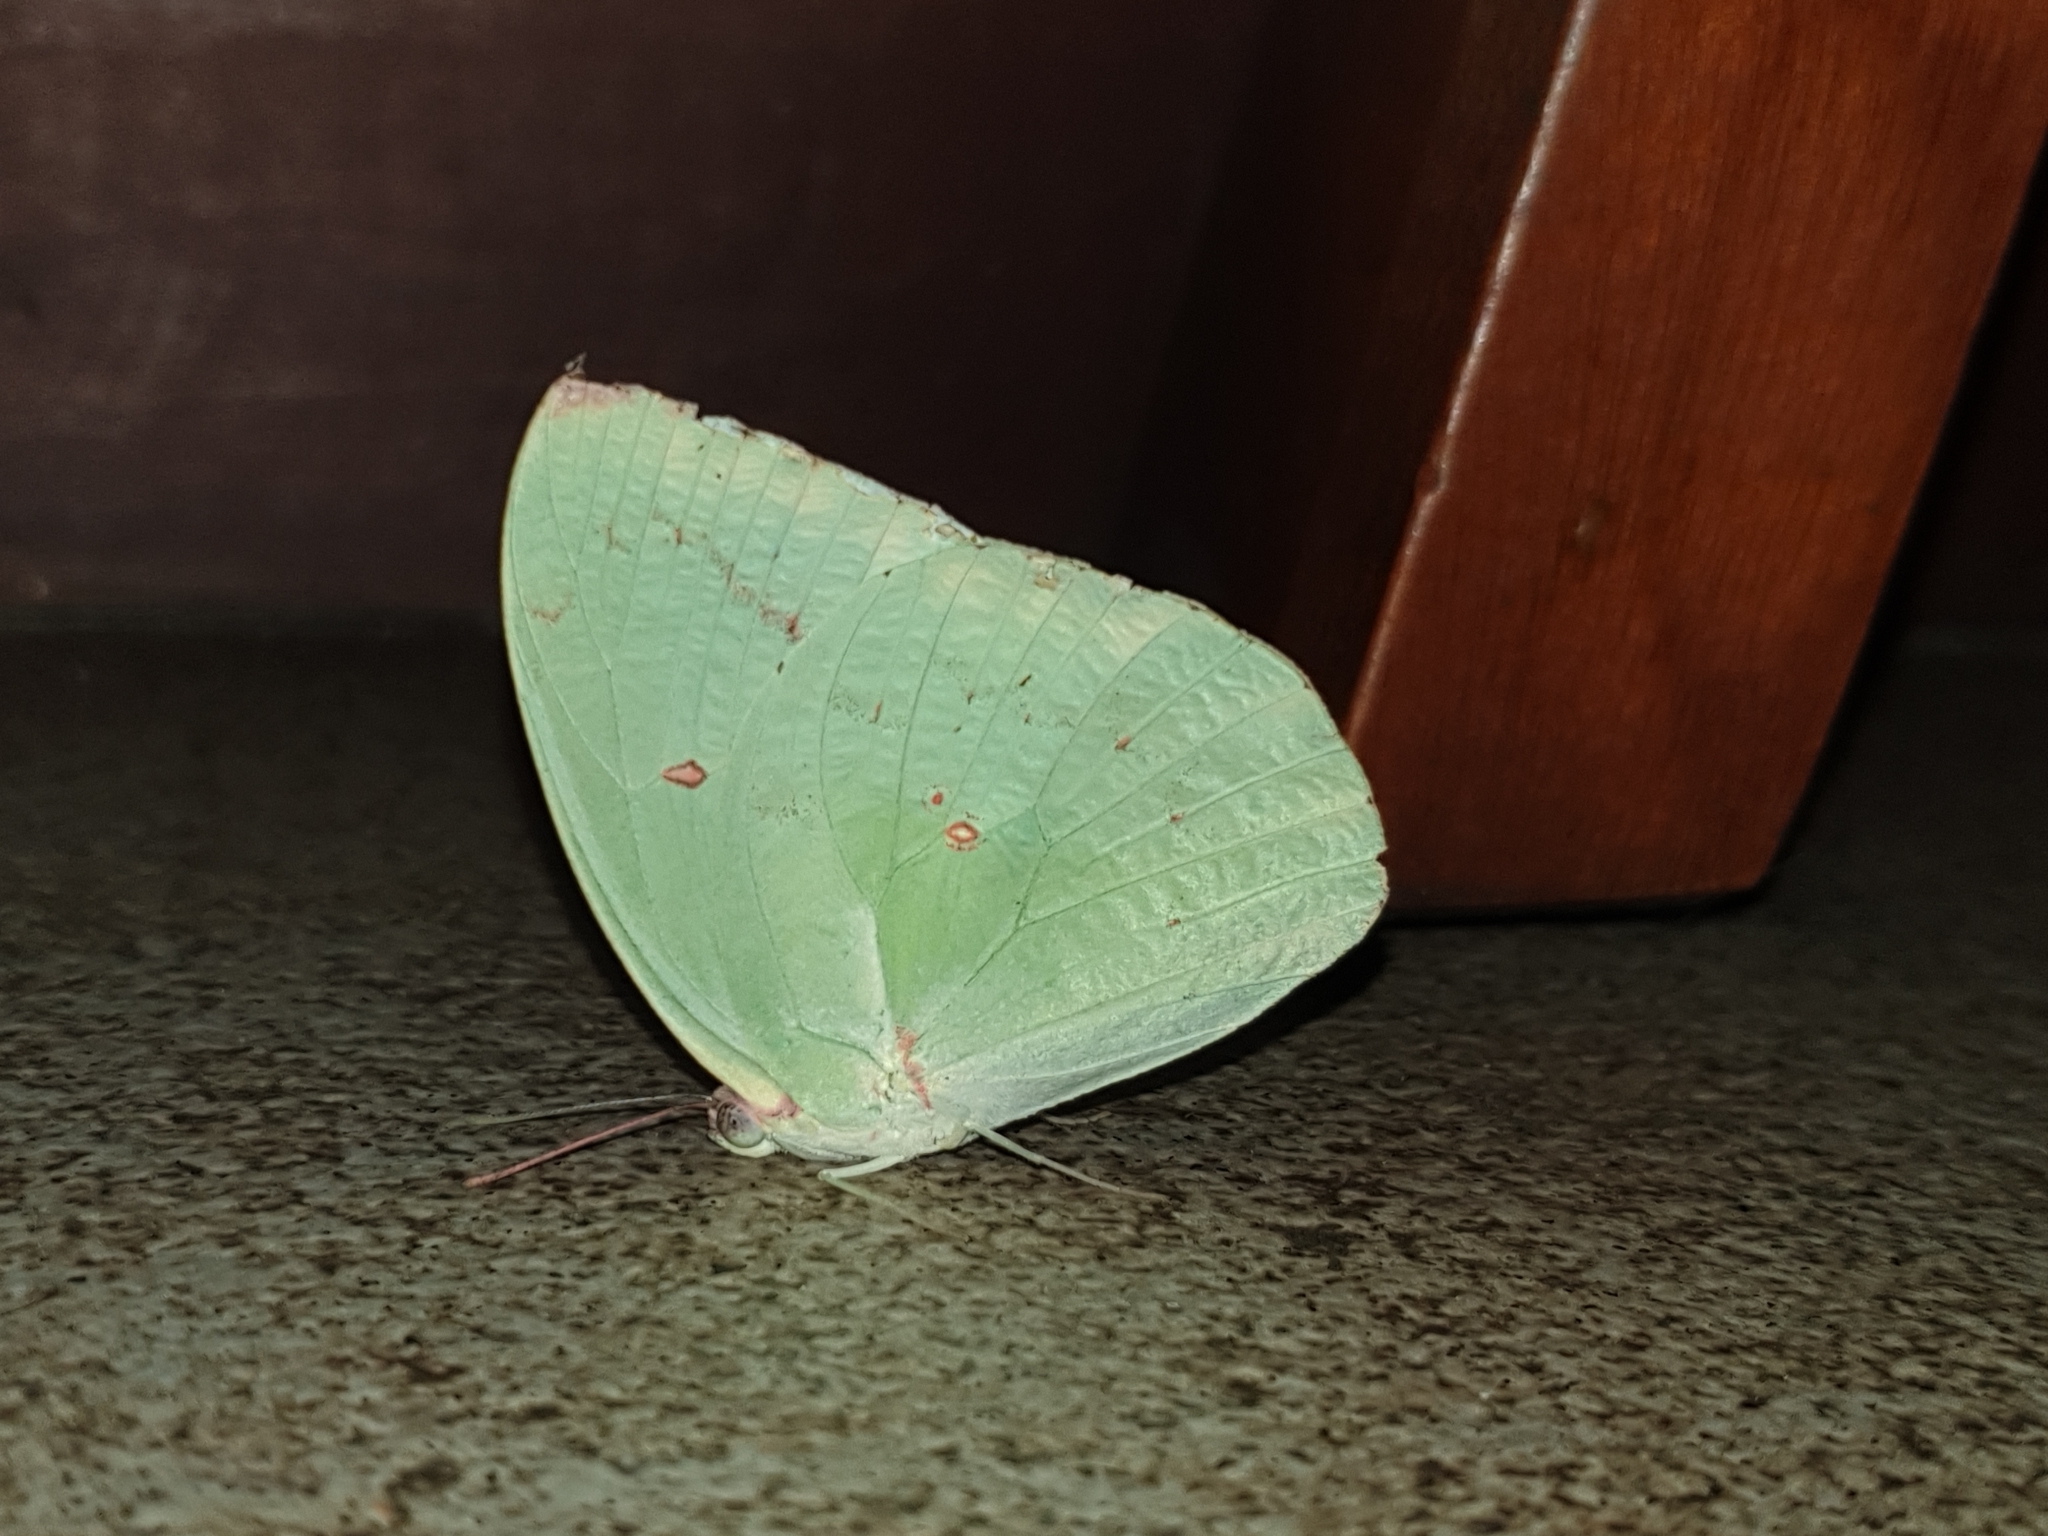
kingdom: Animalia
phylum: Arthropoda
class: Insecta
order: Lepidoptera
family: Pieridae
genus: Catopsilia
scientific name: Catopsilia pomona
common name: Common emigrant
